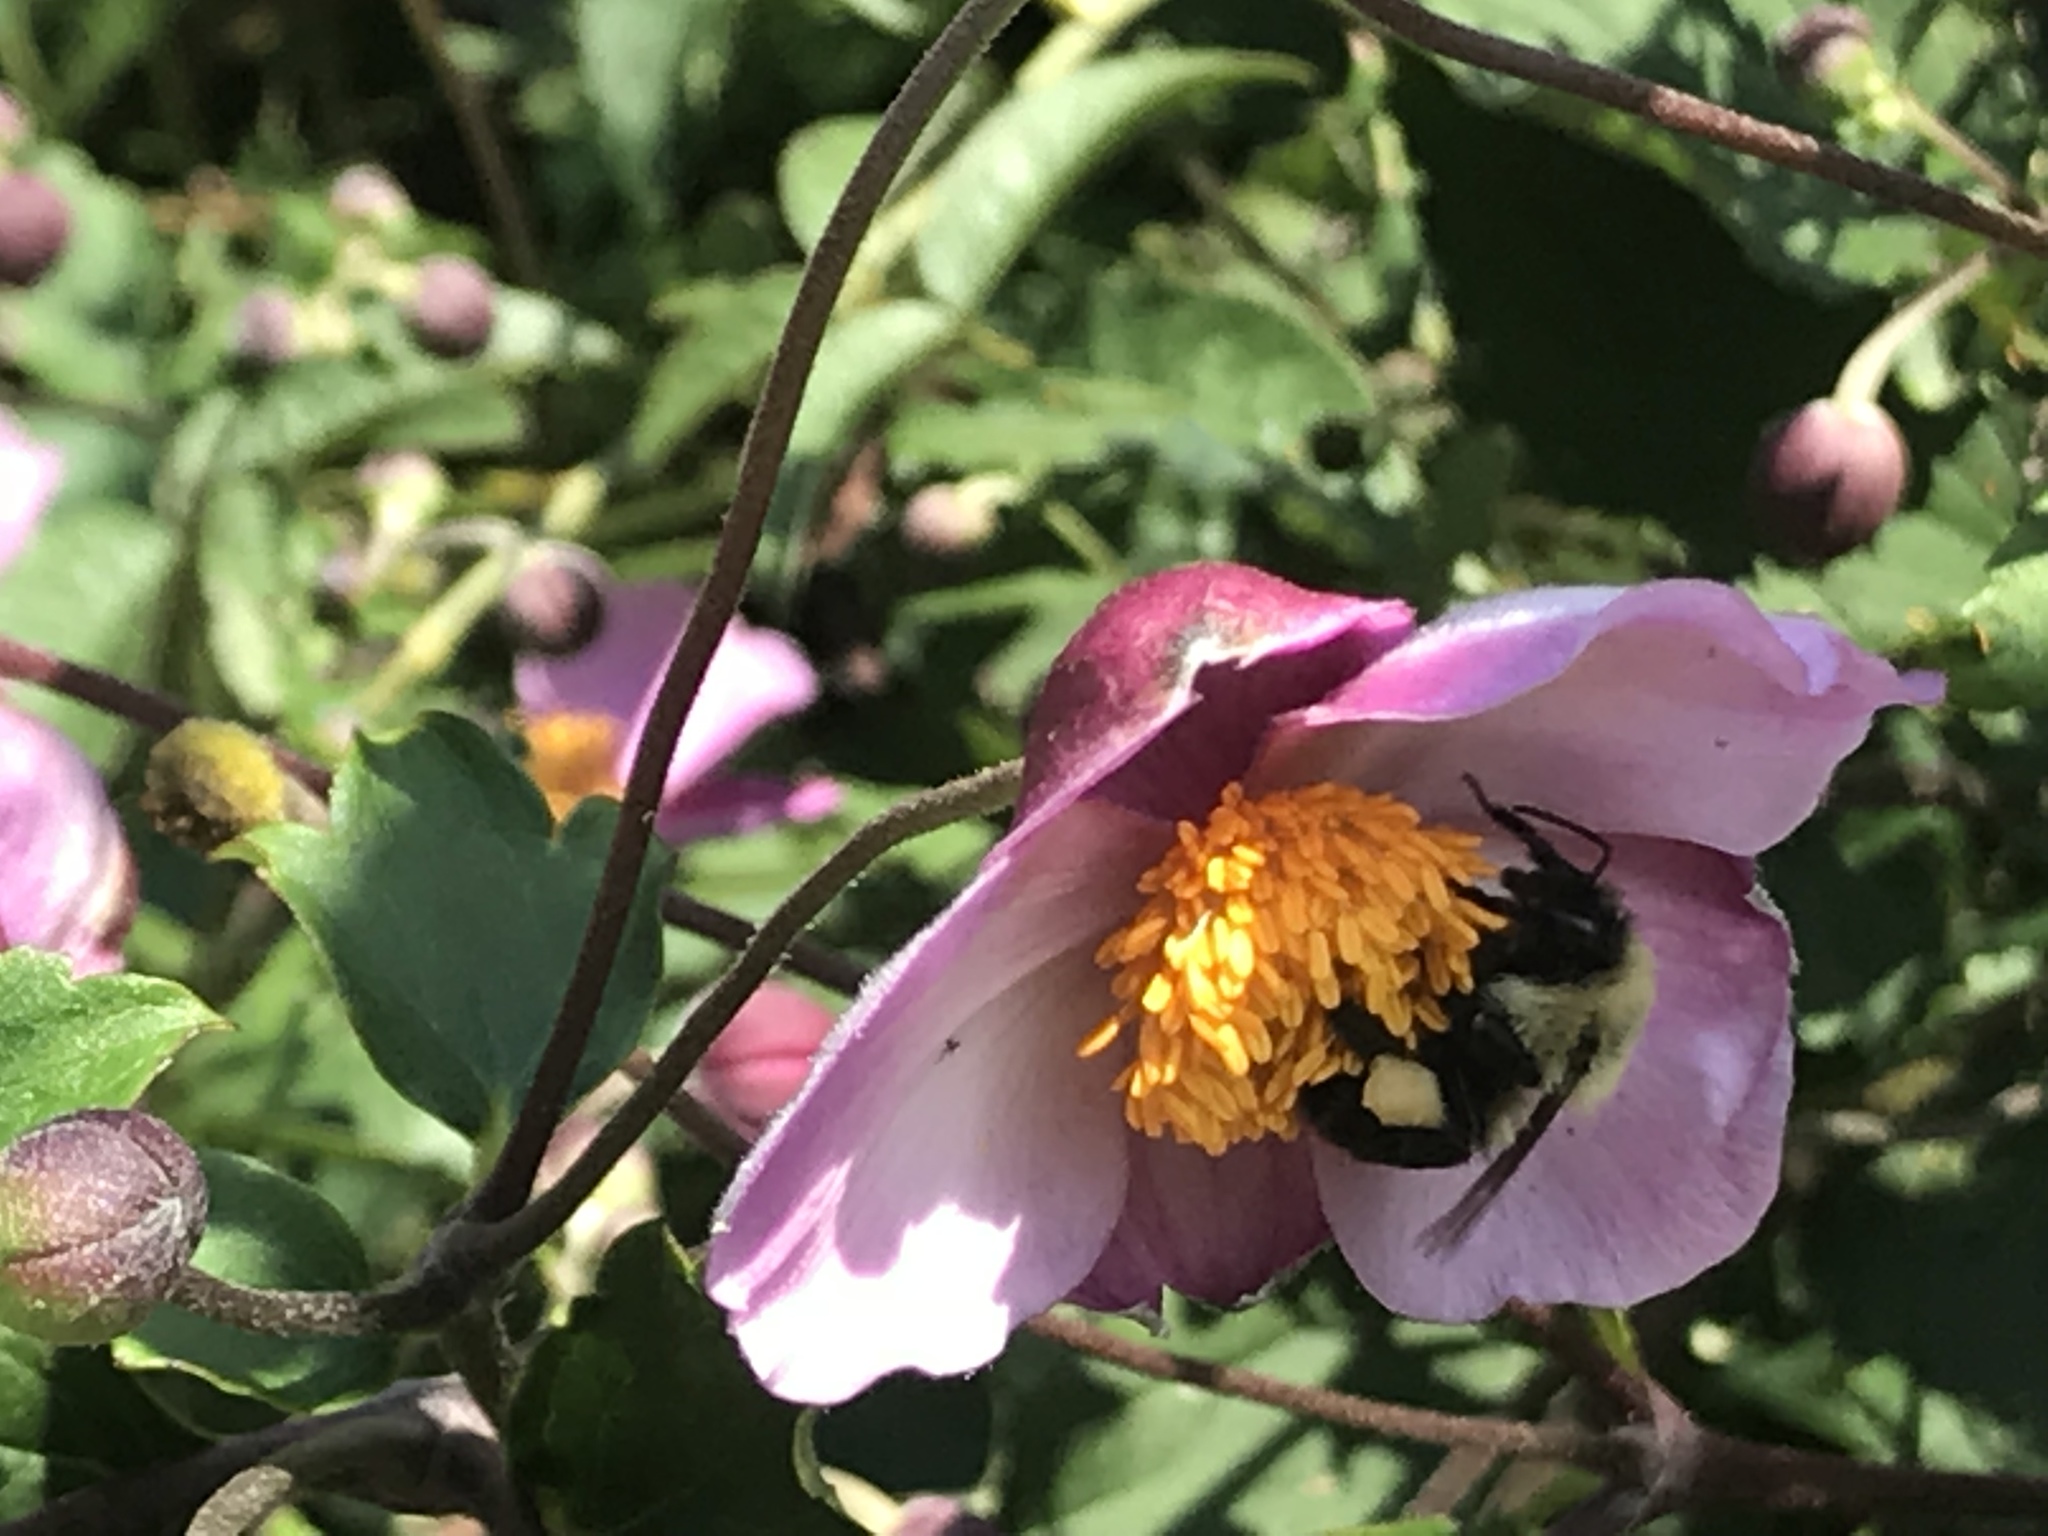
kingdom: Animalia
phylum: Arthropoda
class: Insecta
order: Hymenoptera
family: Apidae
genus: Bombus
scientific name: Bombus impatiens
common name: Common eastern bumble bee
